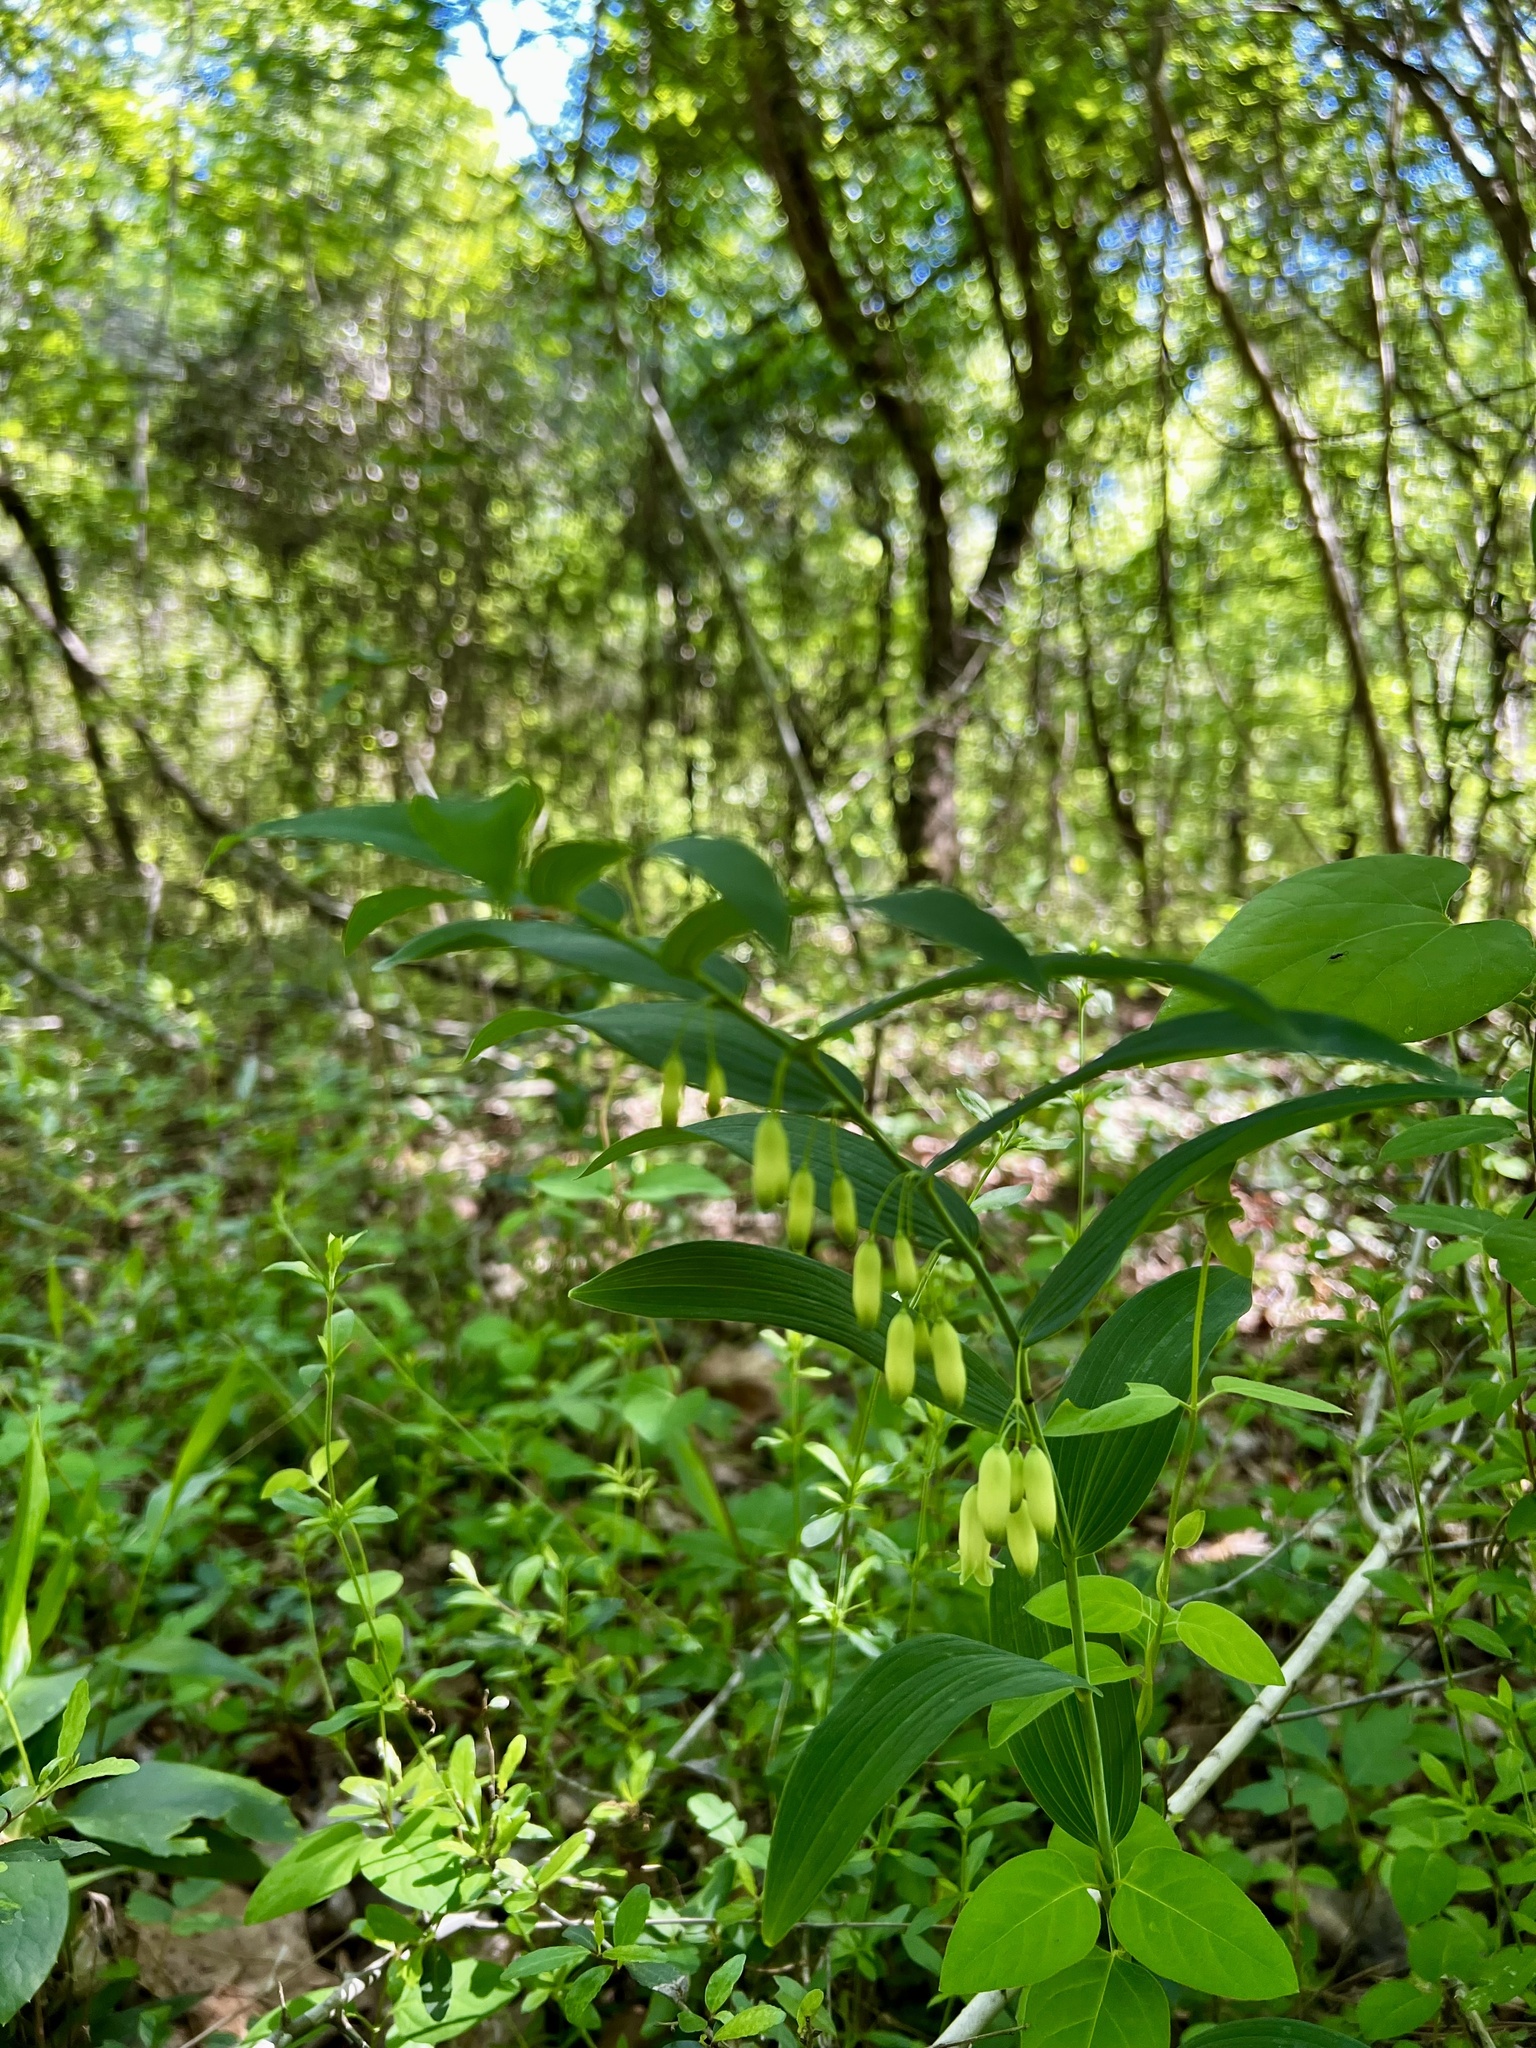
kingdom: Plantae
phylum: Tracheophyta
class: Liliopsida
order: Asparagales
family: Asparagaceae
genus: Polygonatum
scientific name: Polygonatum biflorum
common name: American solomon's-seal
